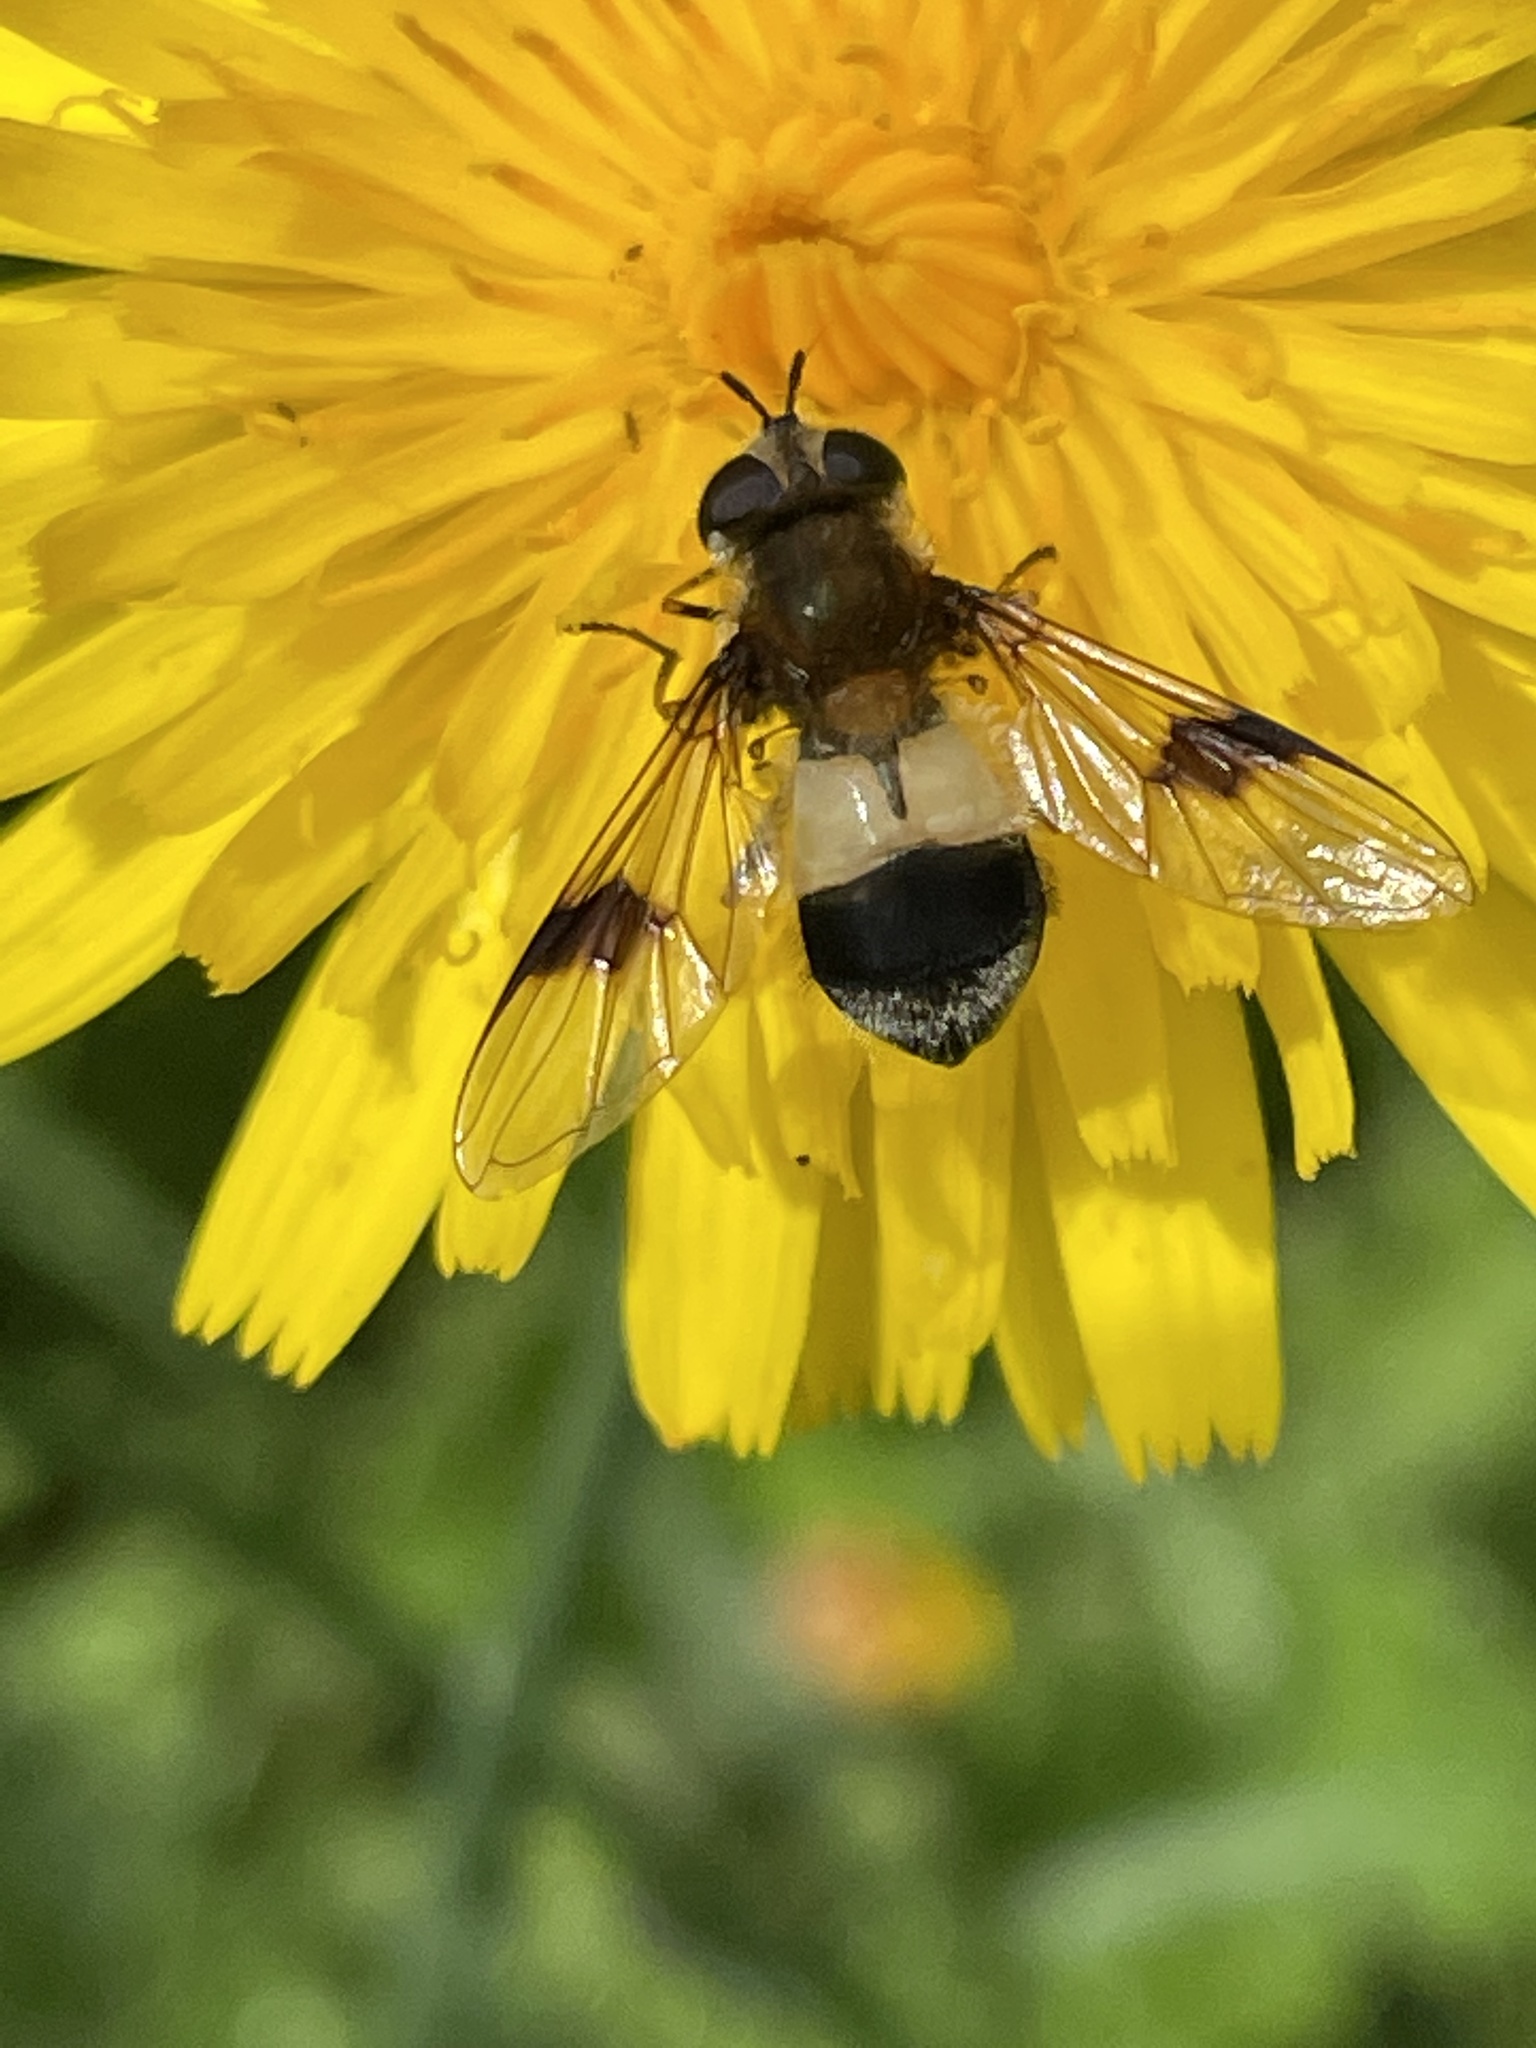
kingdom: Animalia
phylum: Arthropoda
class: Insecta
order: Diptera
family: Syrphidae
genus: Leucozona
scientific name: Leucozona lucorum
